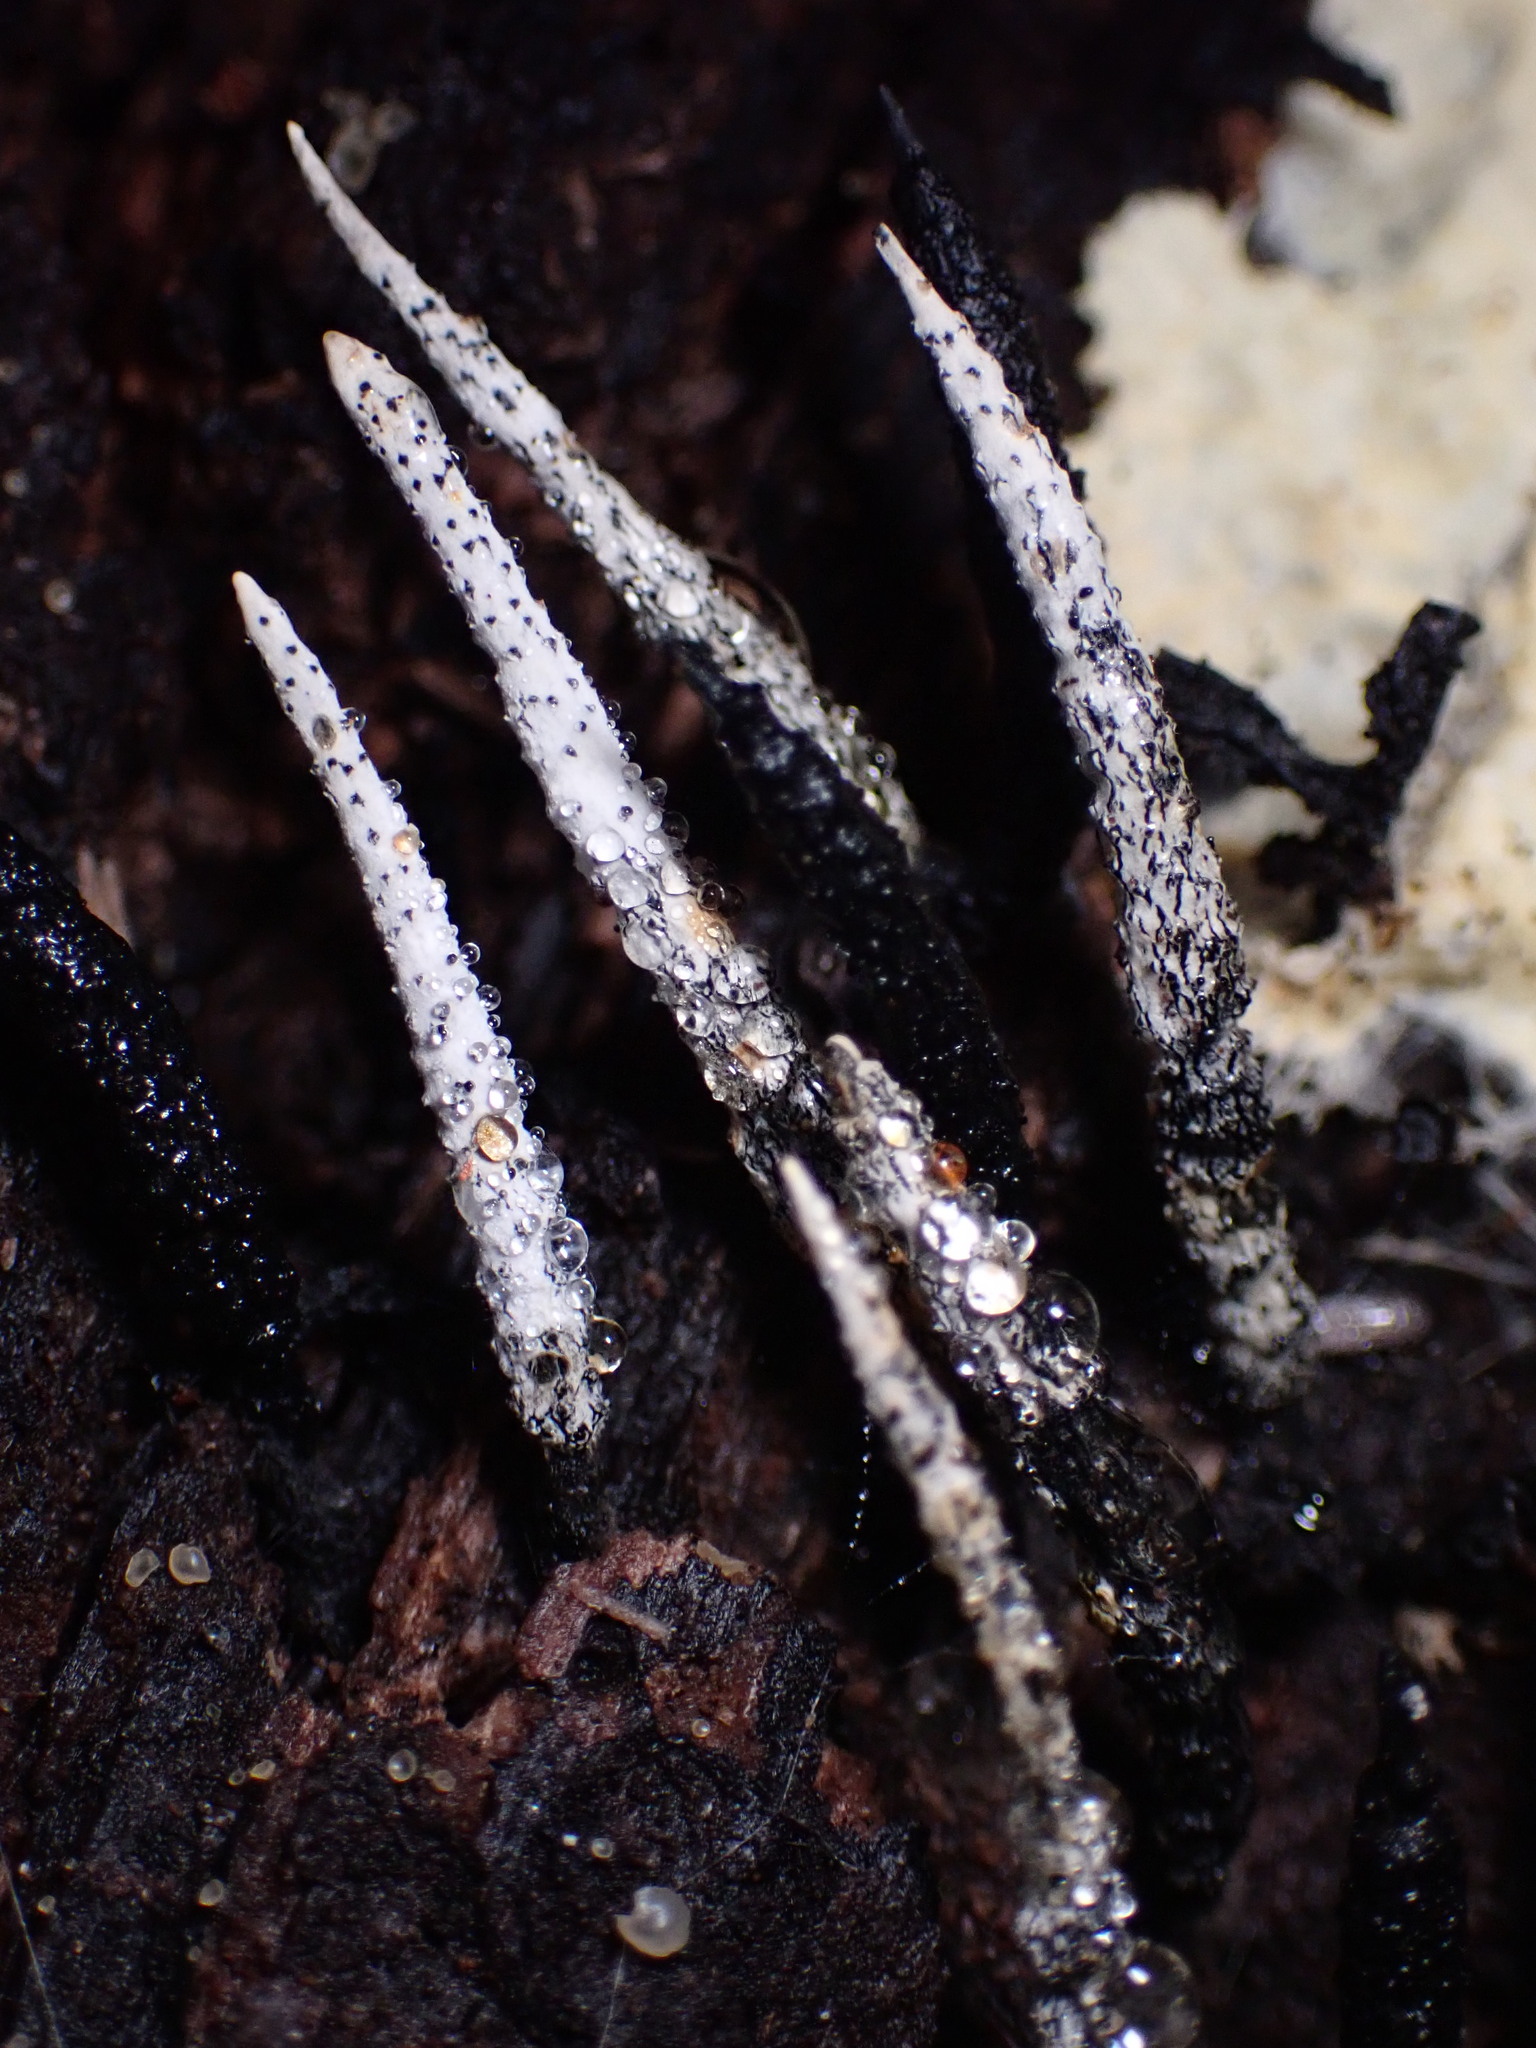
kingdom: Fungi
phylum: Ascomycota
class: Sordariomycetes
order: Xylariales
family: Xylariaceae
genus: Xylaria
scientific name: Xylaria hypoxylon
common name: Candle-snuff fungus
